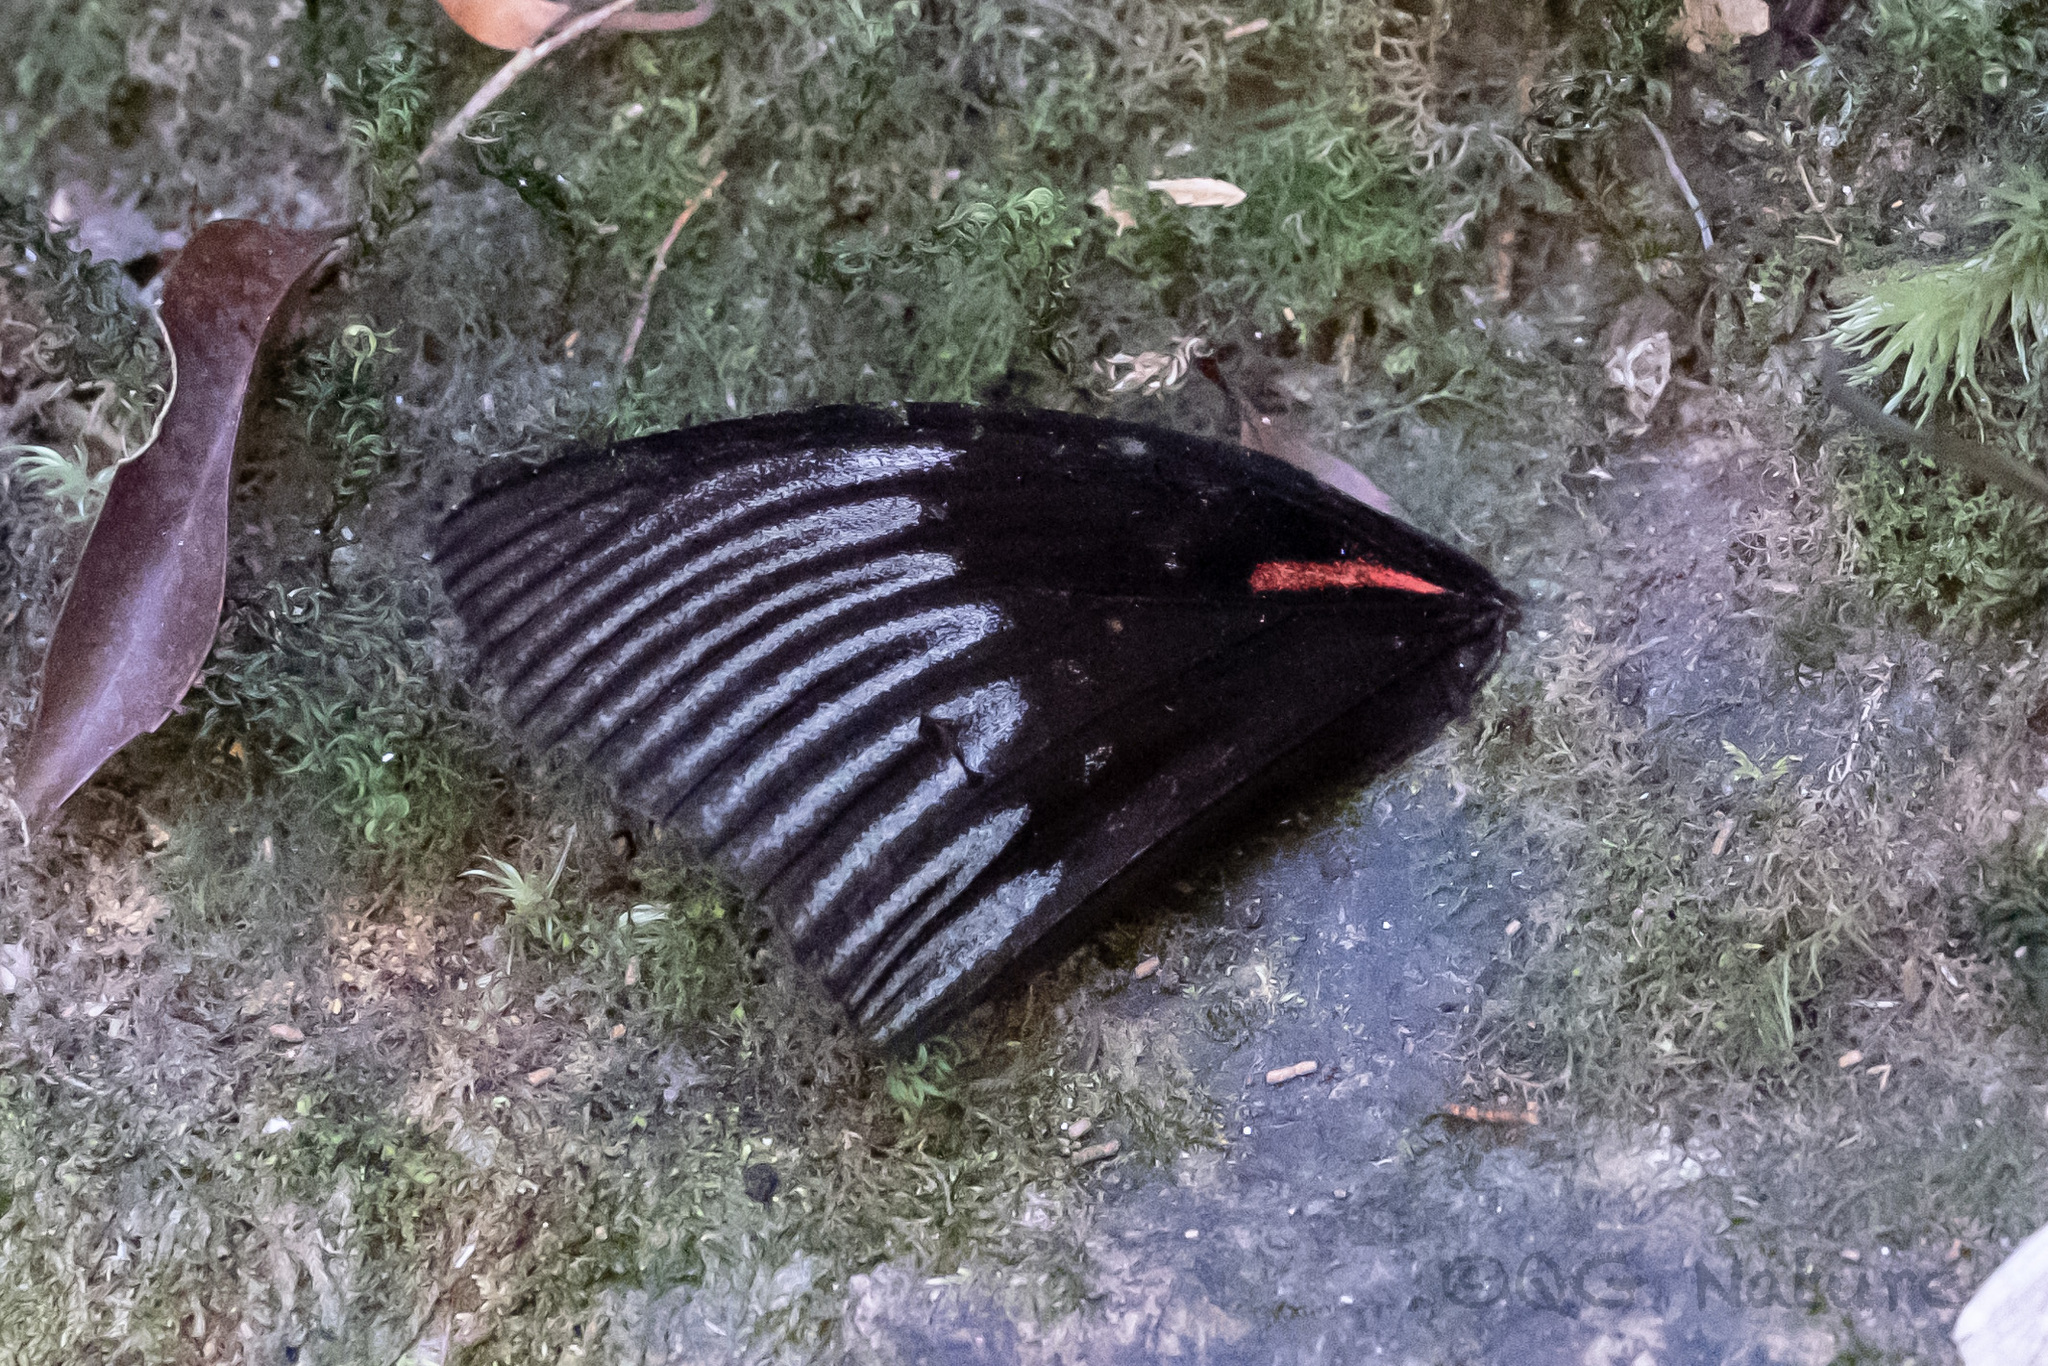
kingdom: Animalia
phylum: Arthropoda
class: Insecta
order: Lepidoptera
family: Nymphalidae
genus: Sasakia
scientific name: Sasakia funebris
